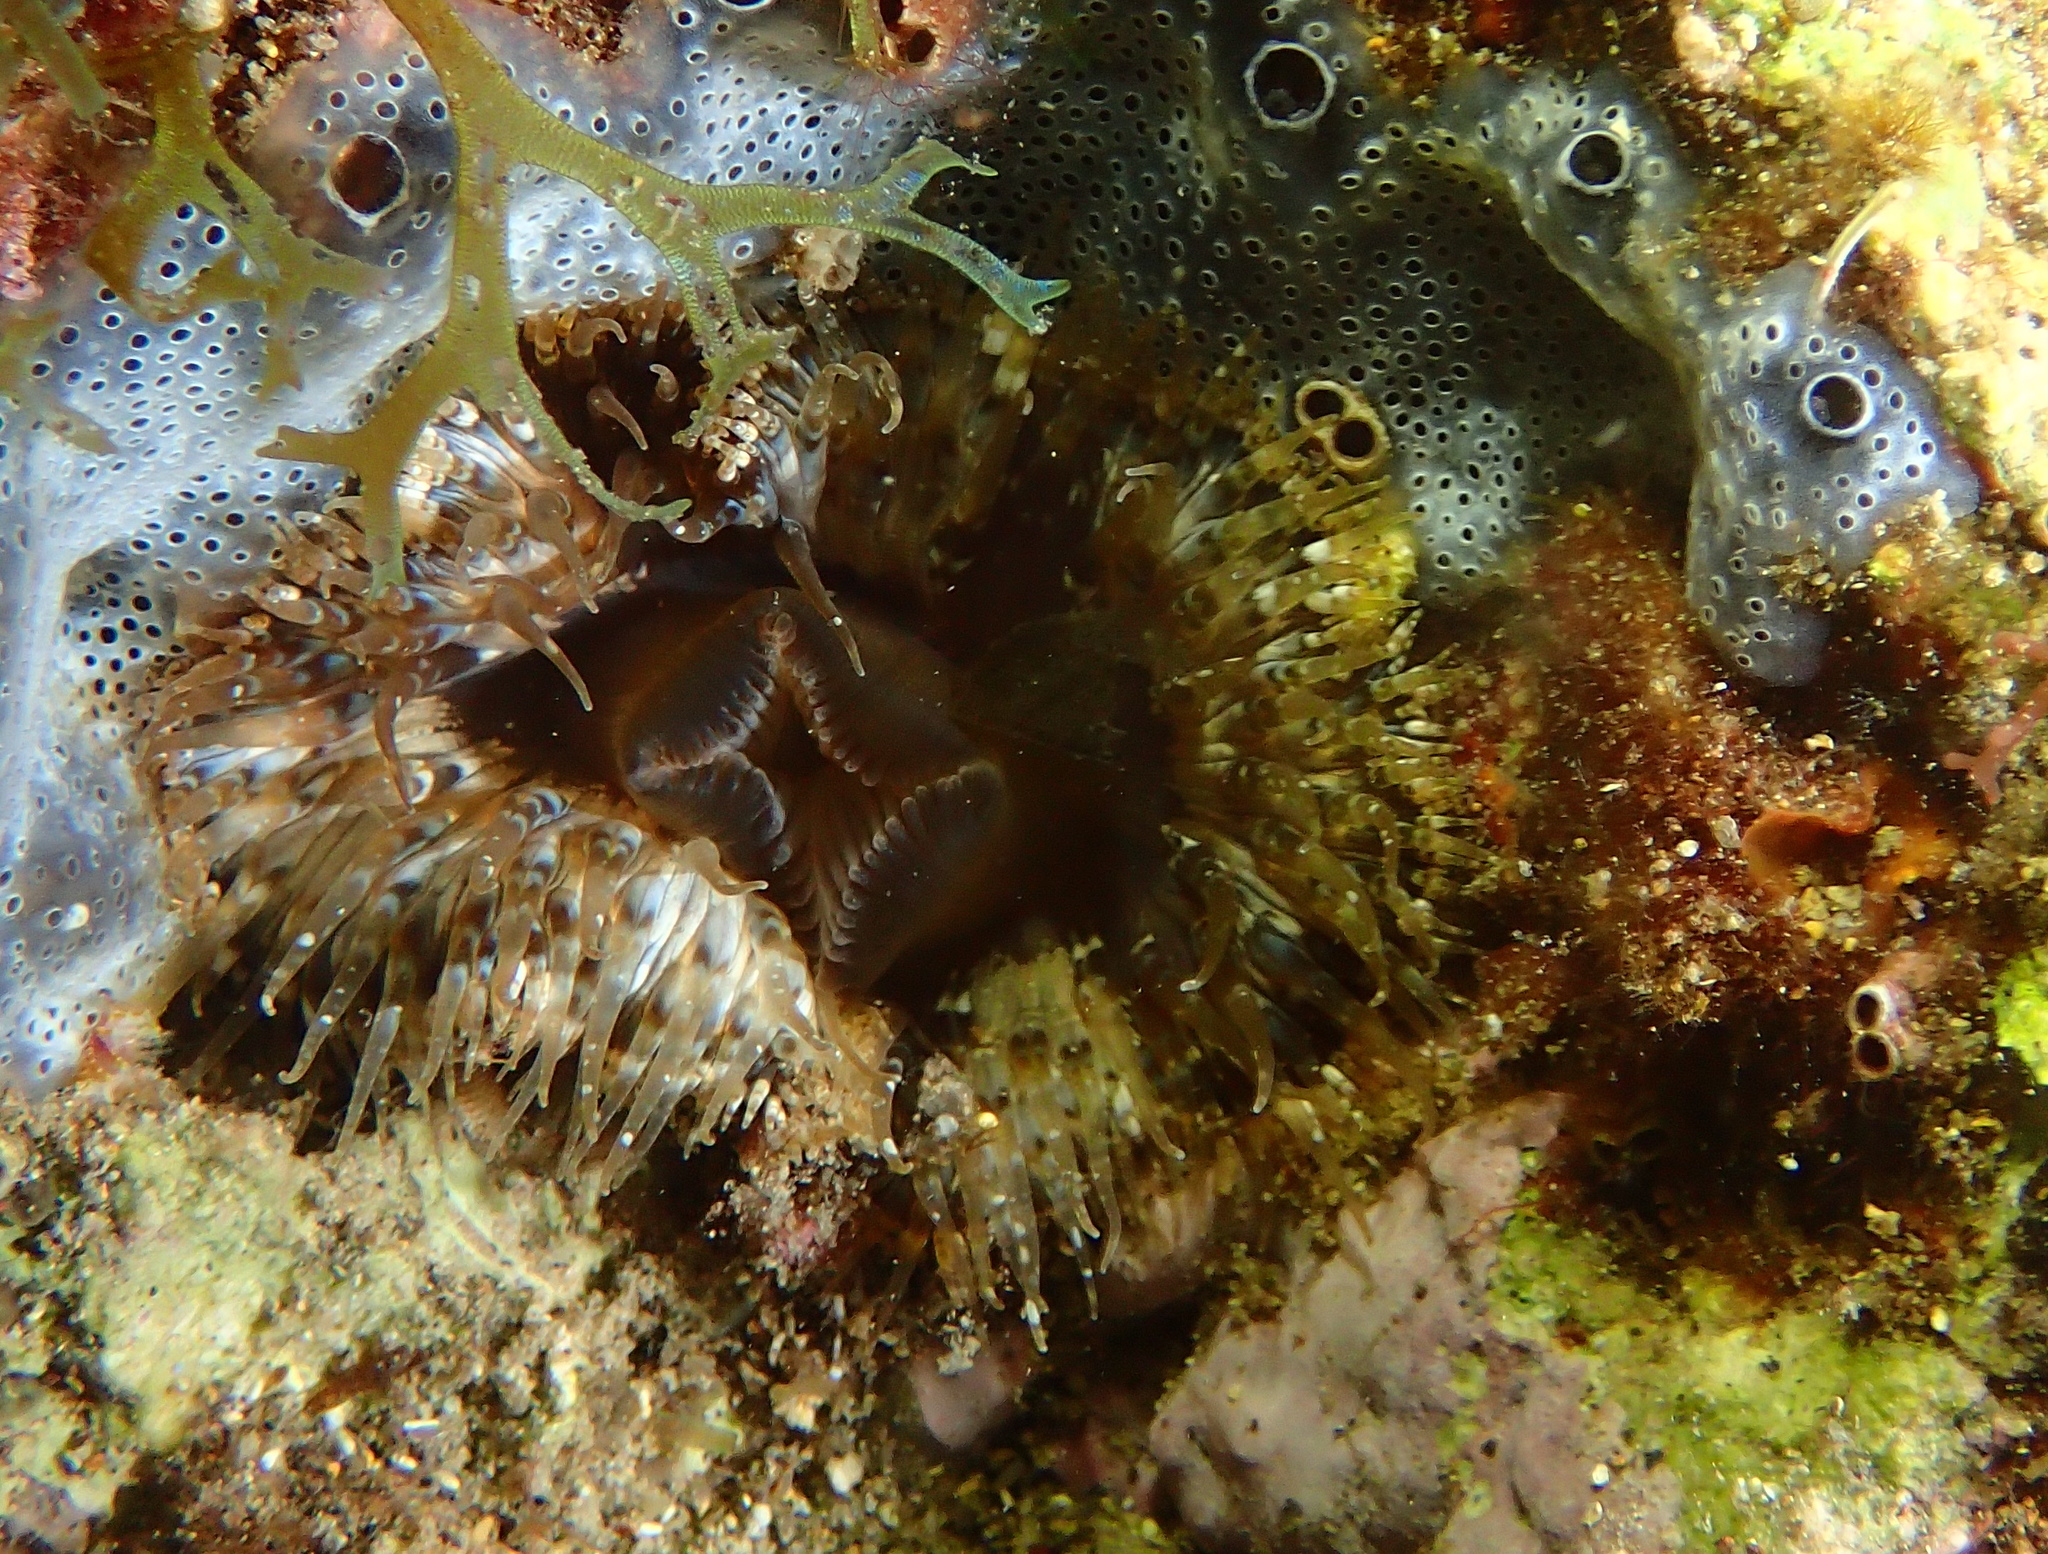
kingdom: Animalia
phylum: Cnidaria
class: Anthozoa
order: Actiniaria
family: Sagartiidae
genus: Cereus
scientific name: Cereus pedunculatus
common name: Daisy anemone
